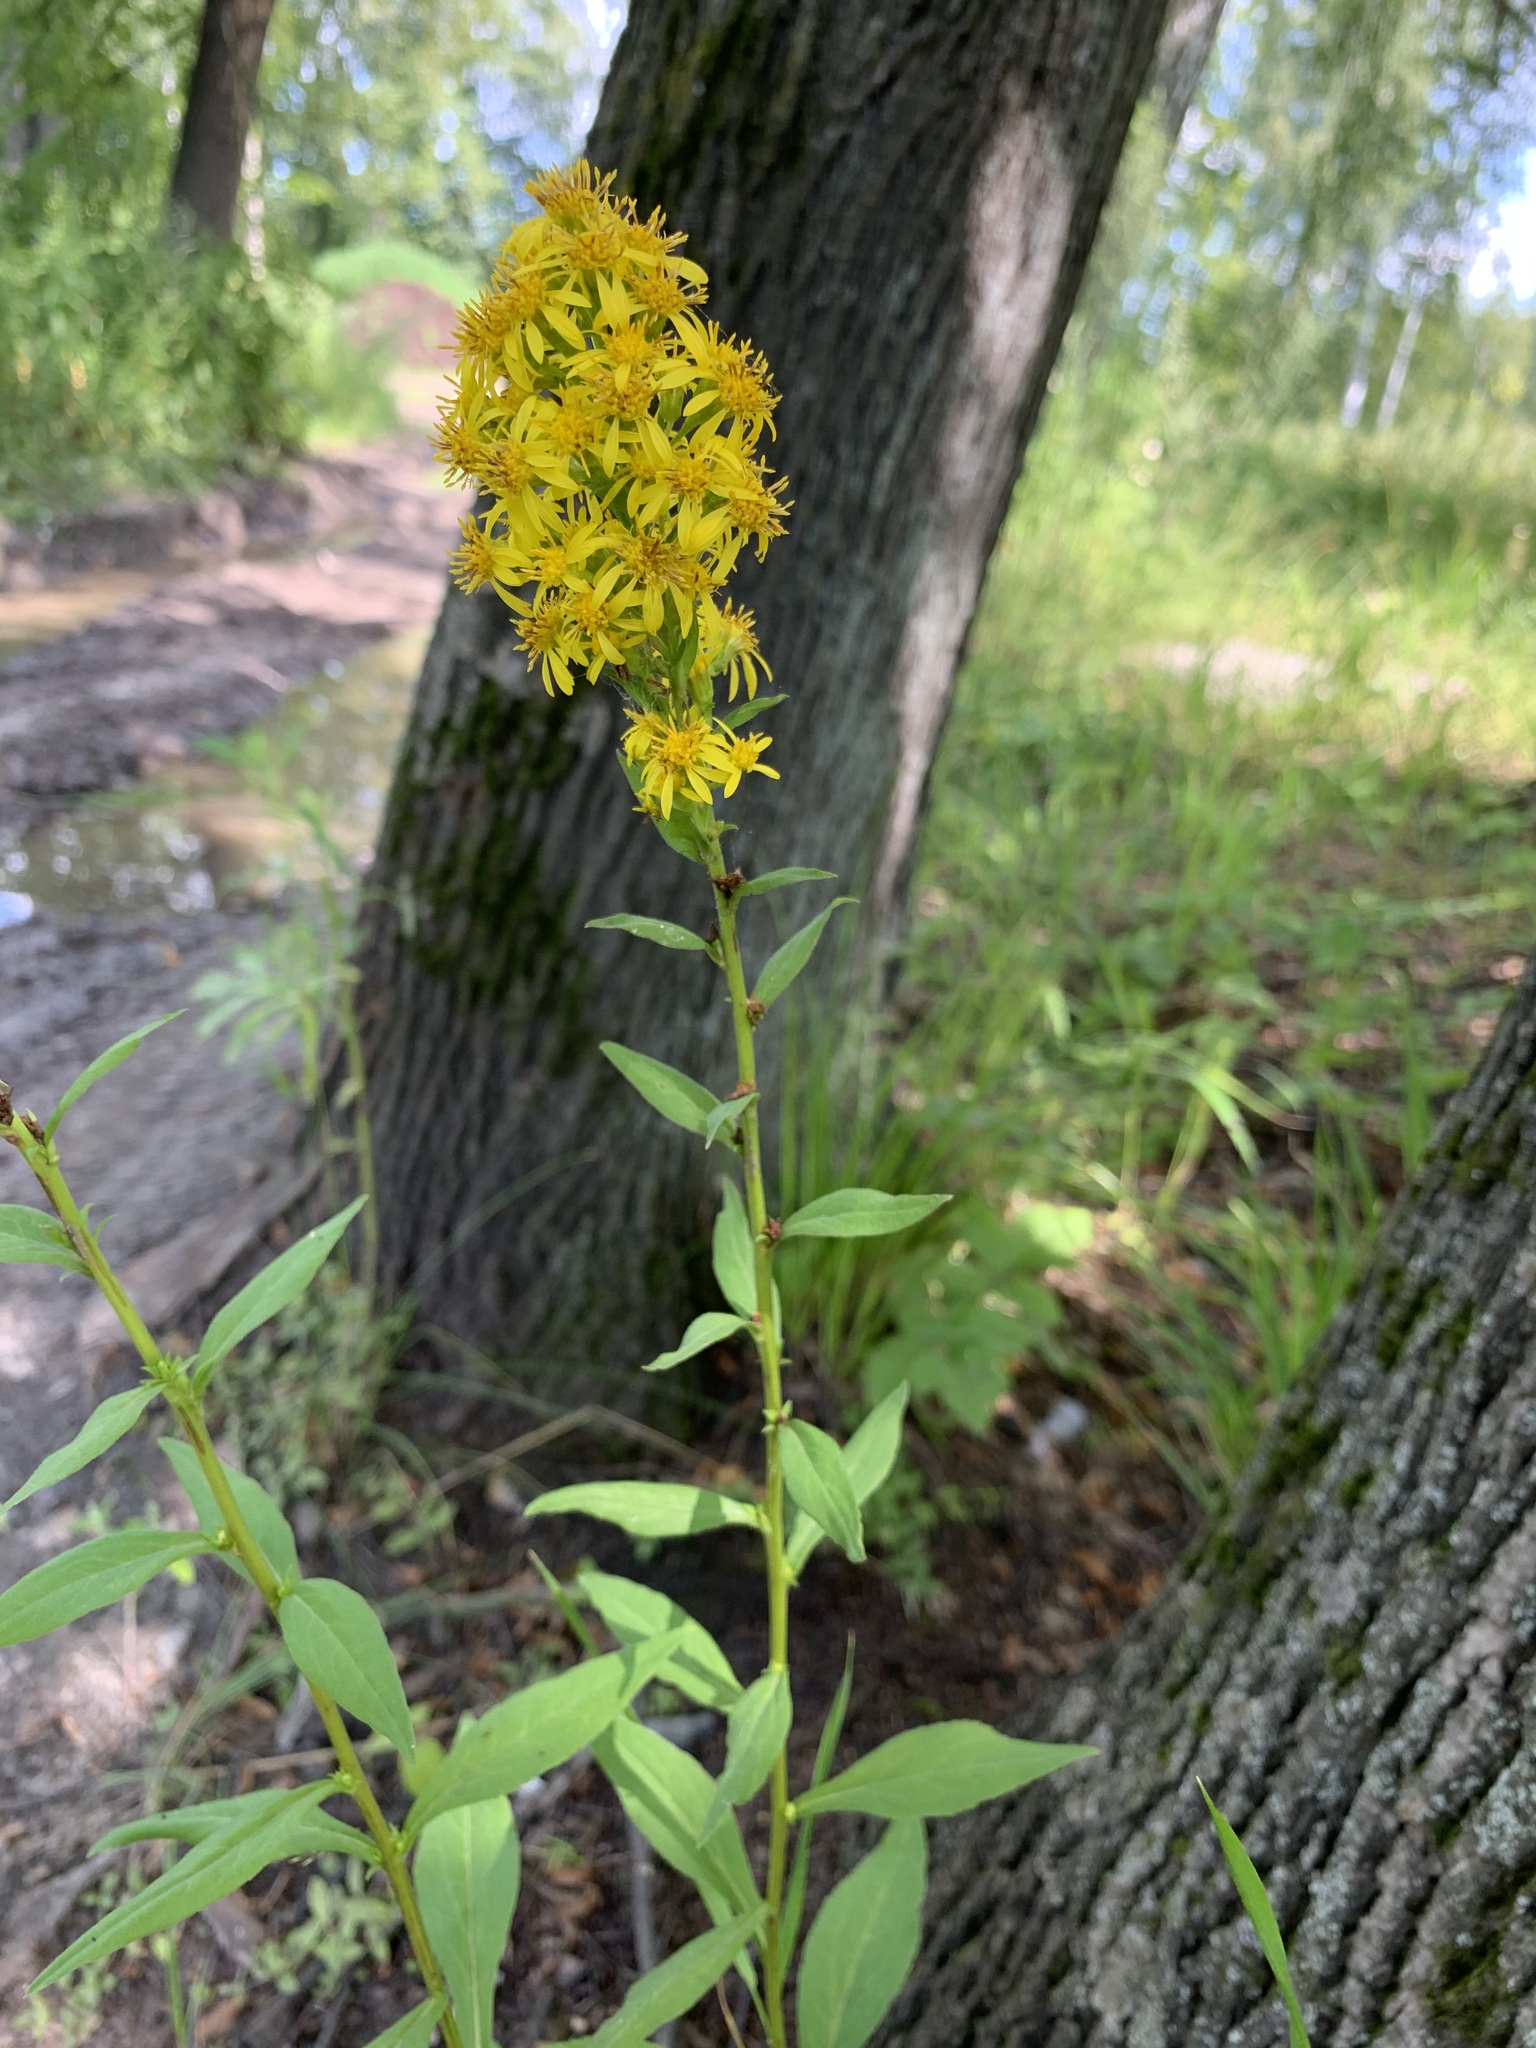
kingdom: Plantae
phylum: Tracheophyta
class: Magnoliopsida
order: Asterales
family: Asteraceae
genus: Solidago
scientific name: Solidago virgaurea
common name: Goldenrod
